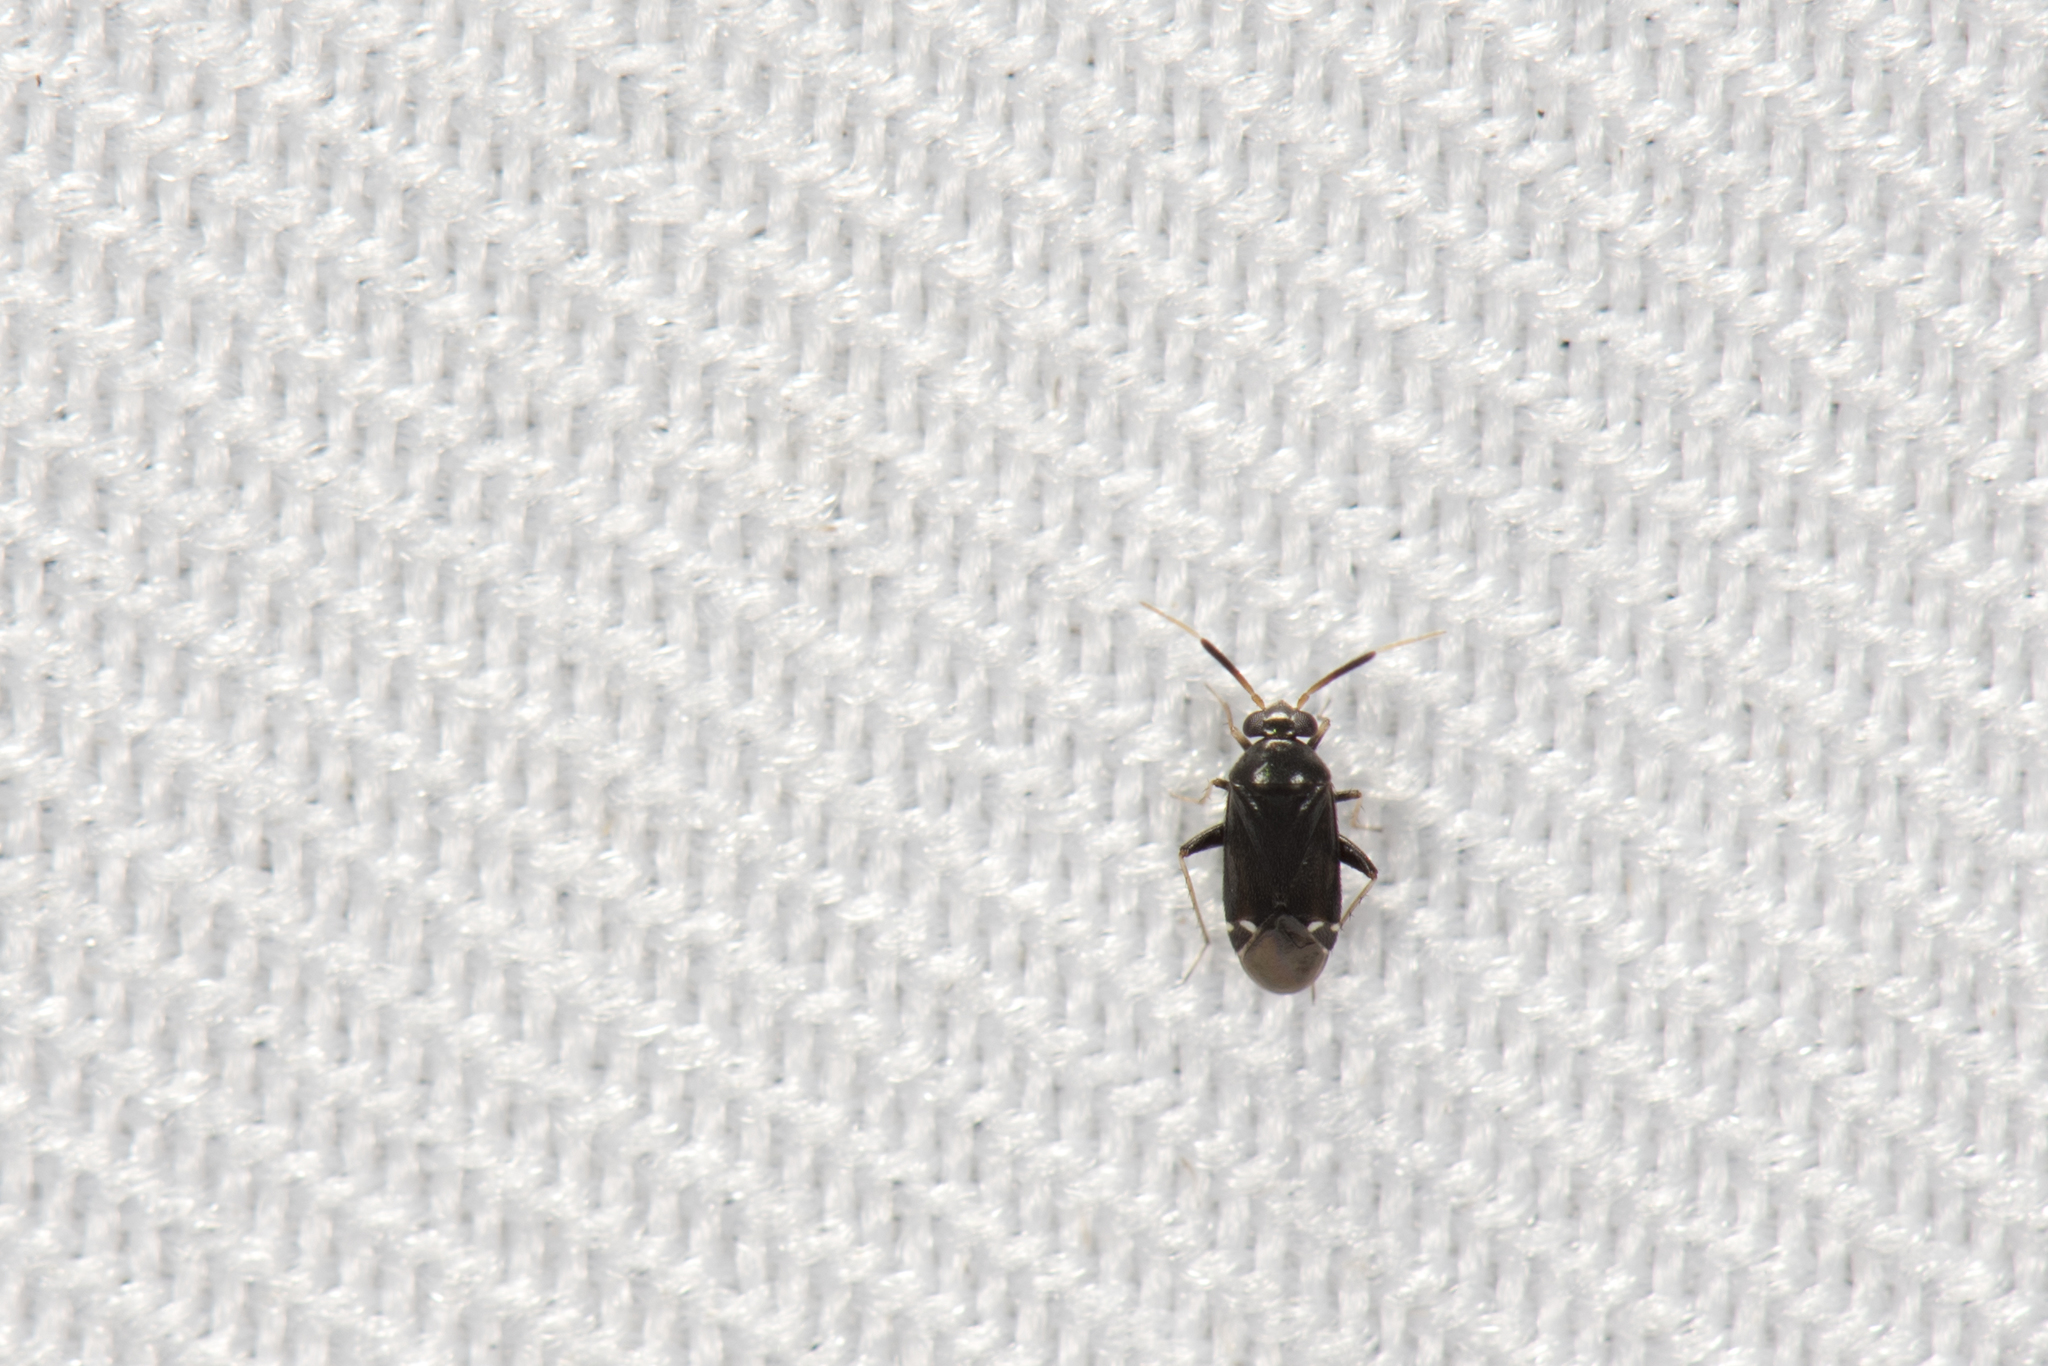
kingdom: Animalia
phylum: Arthropoda
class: Insecta
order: Hemiptera
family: Miridae
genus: Sejanus
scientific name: Sejanus neofunereus
